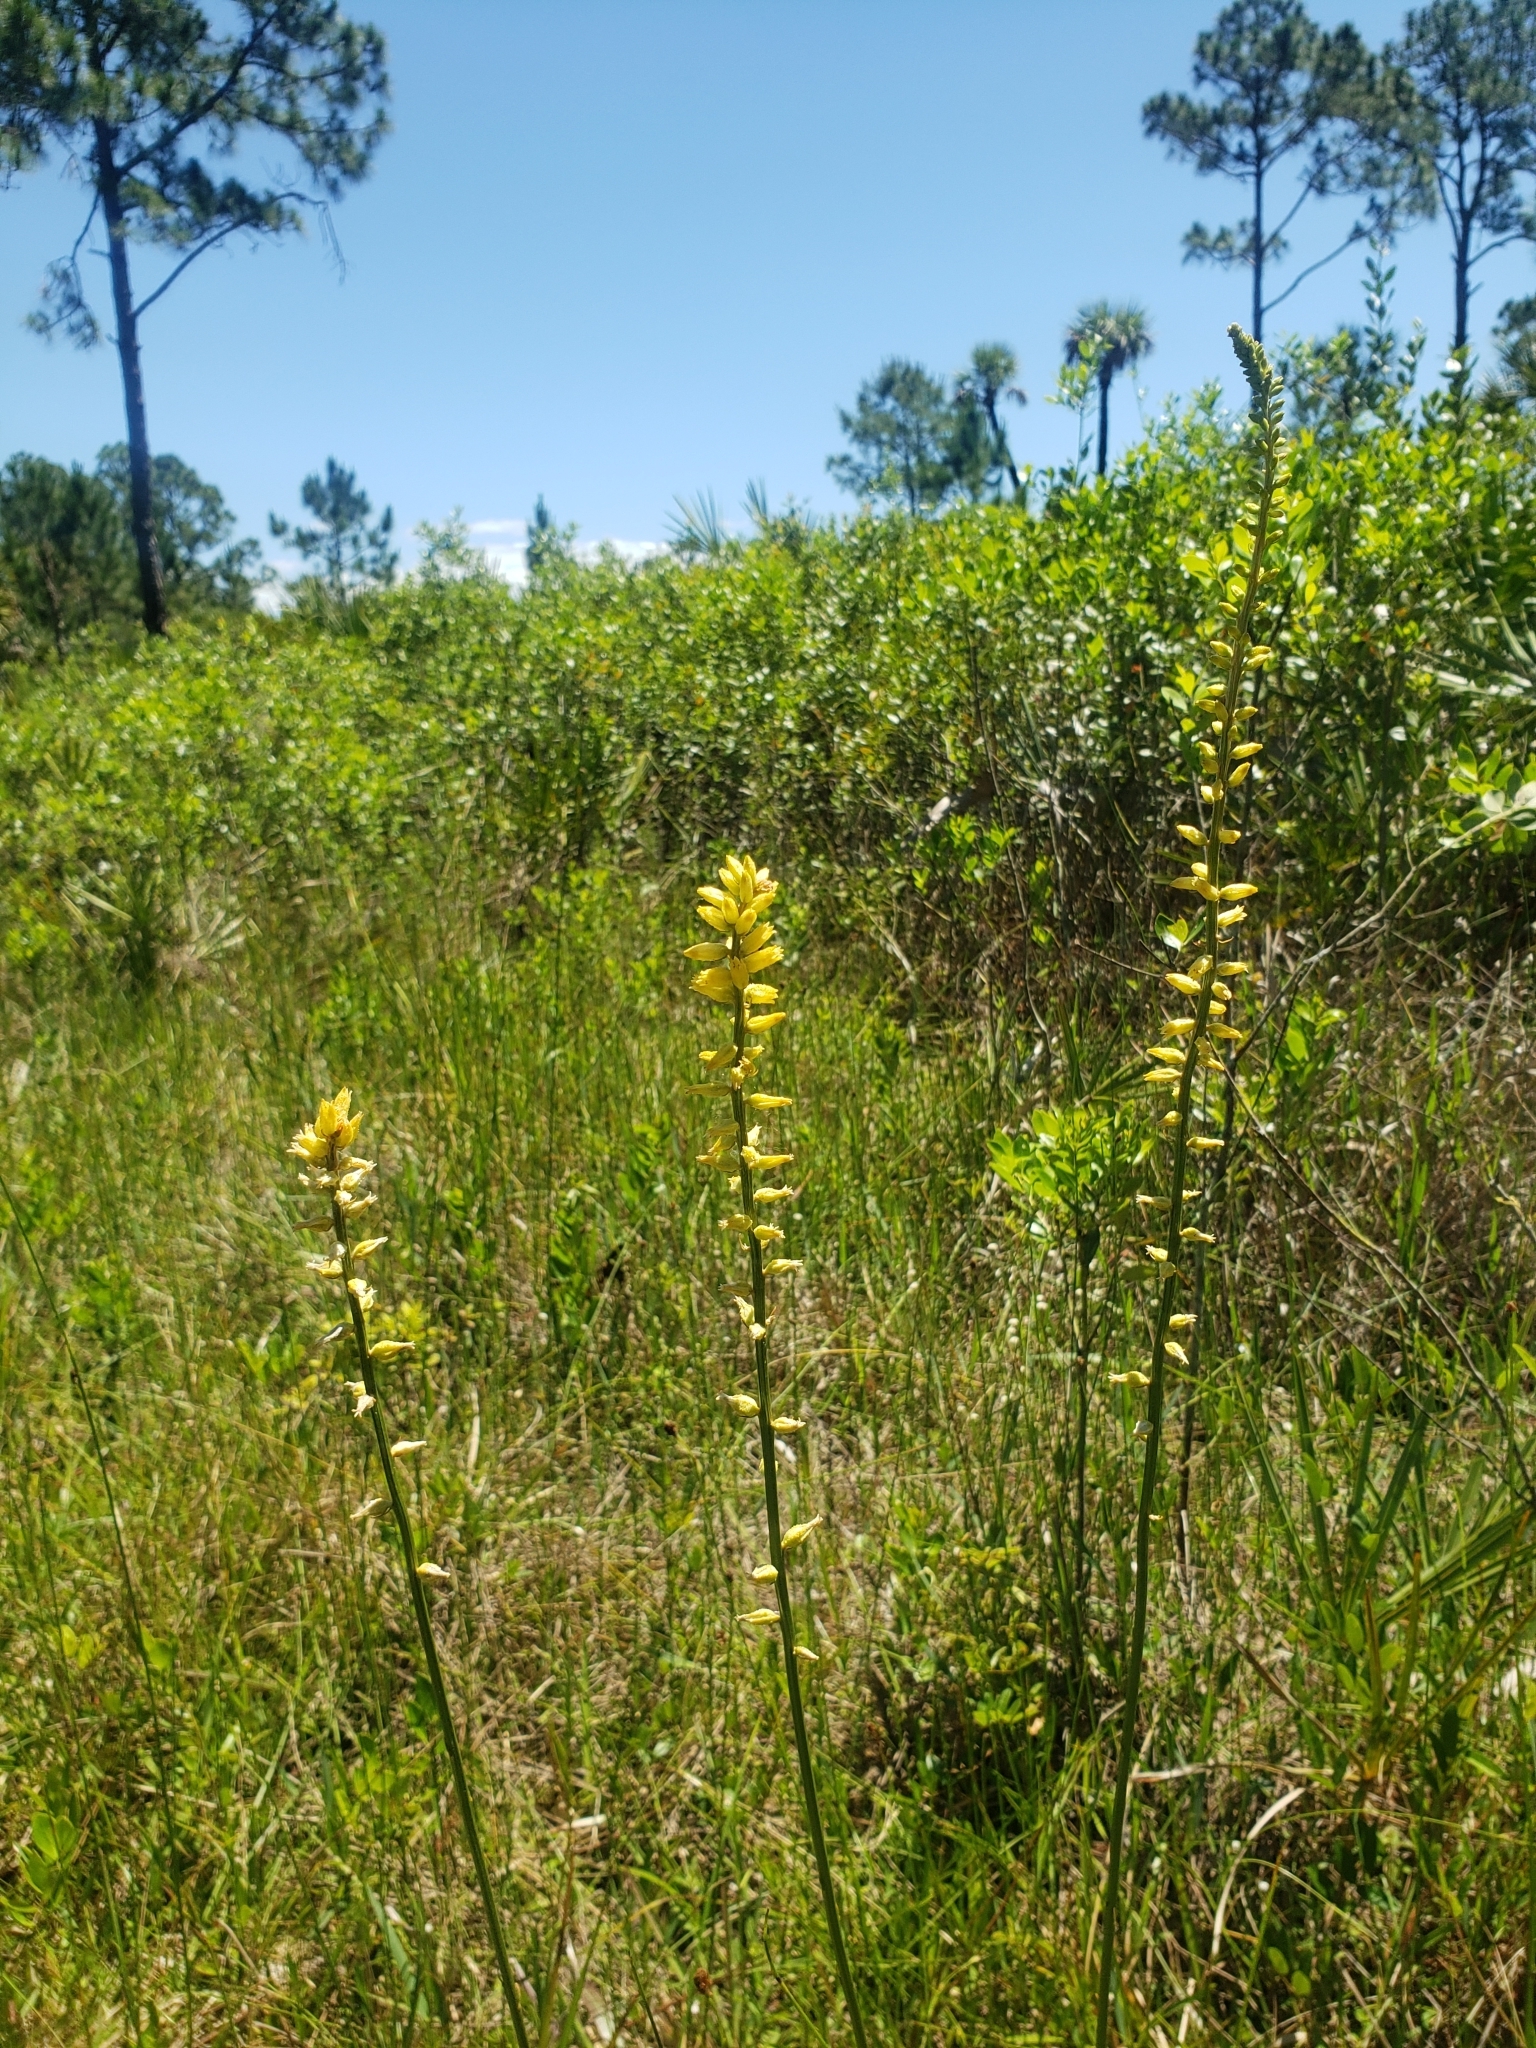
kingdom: Plantae
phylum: Tracheophyta
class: Liliopsida
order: Dioscoreales
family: Nartheciaceae
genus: Aletris
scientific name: Aletris lutea
